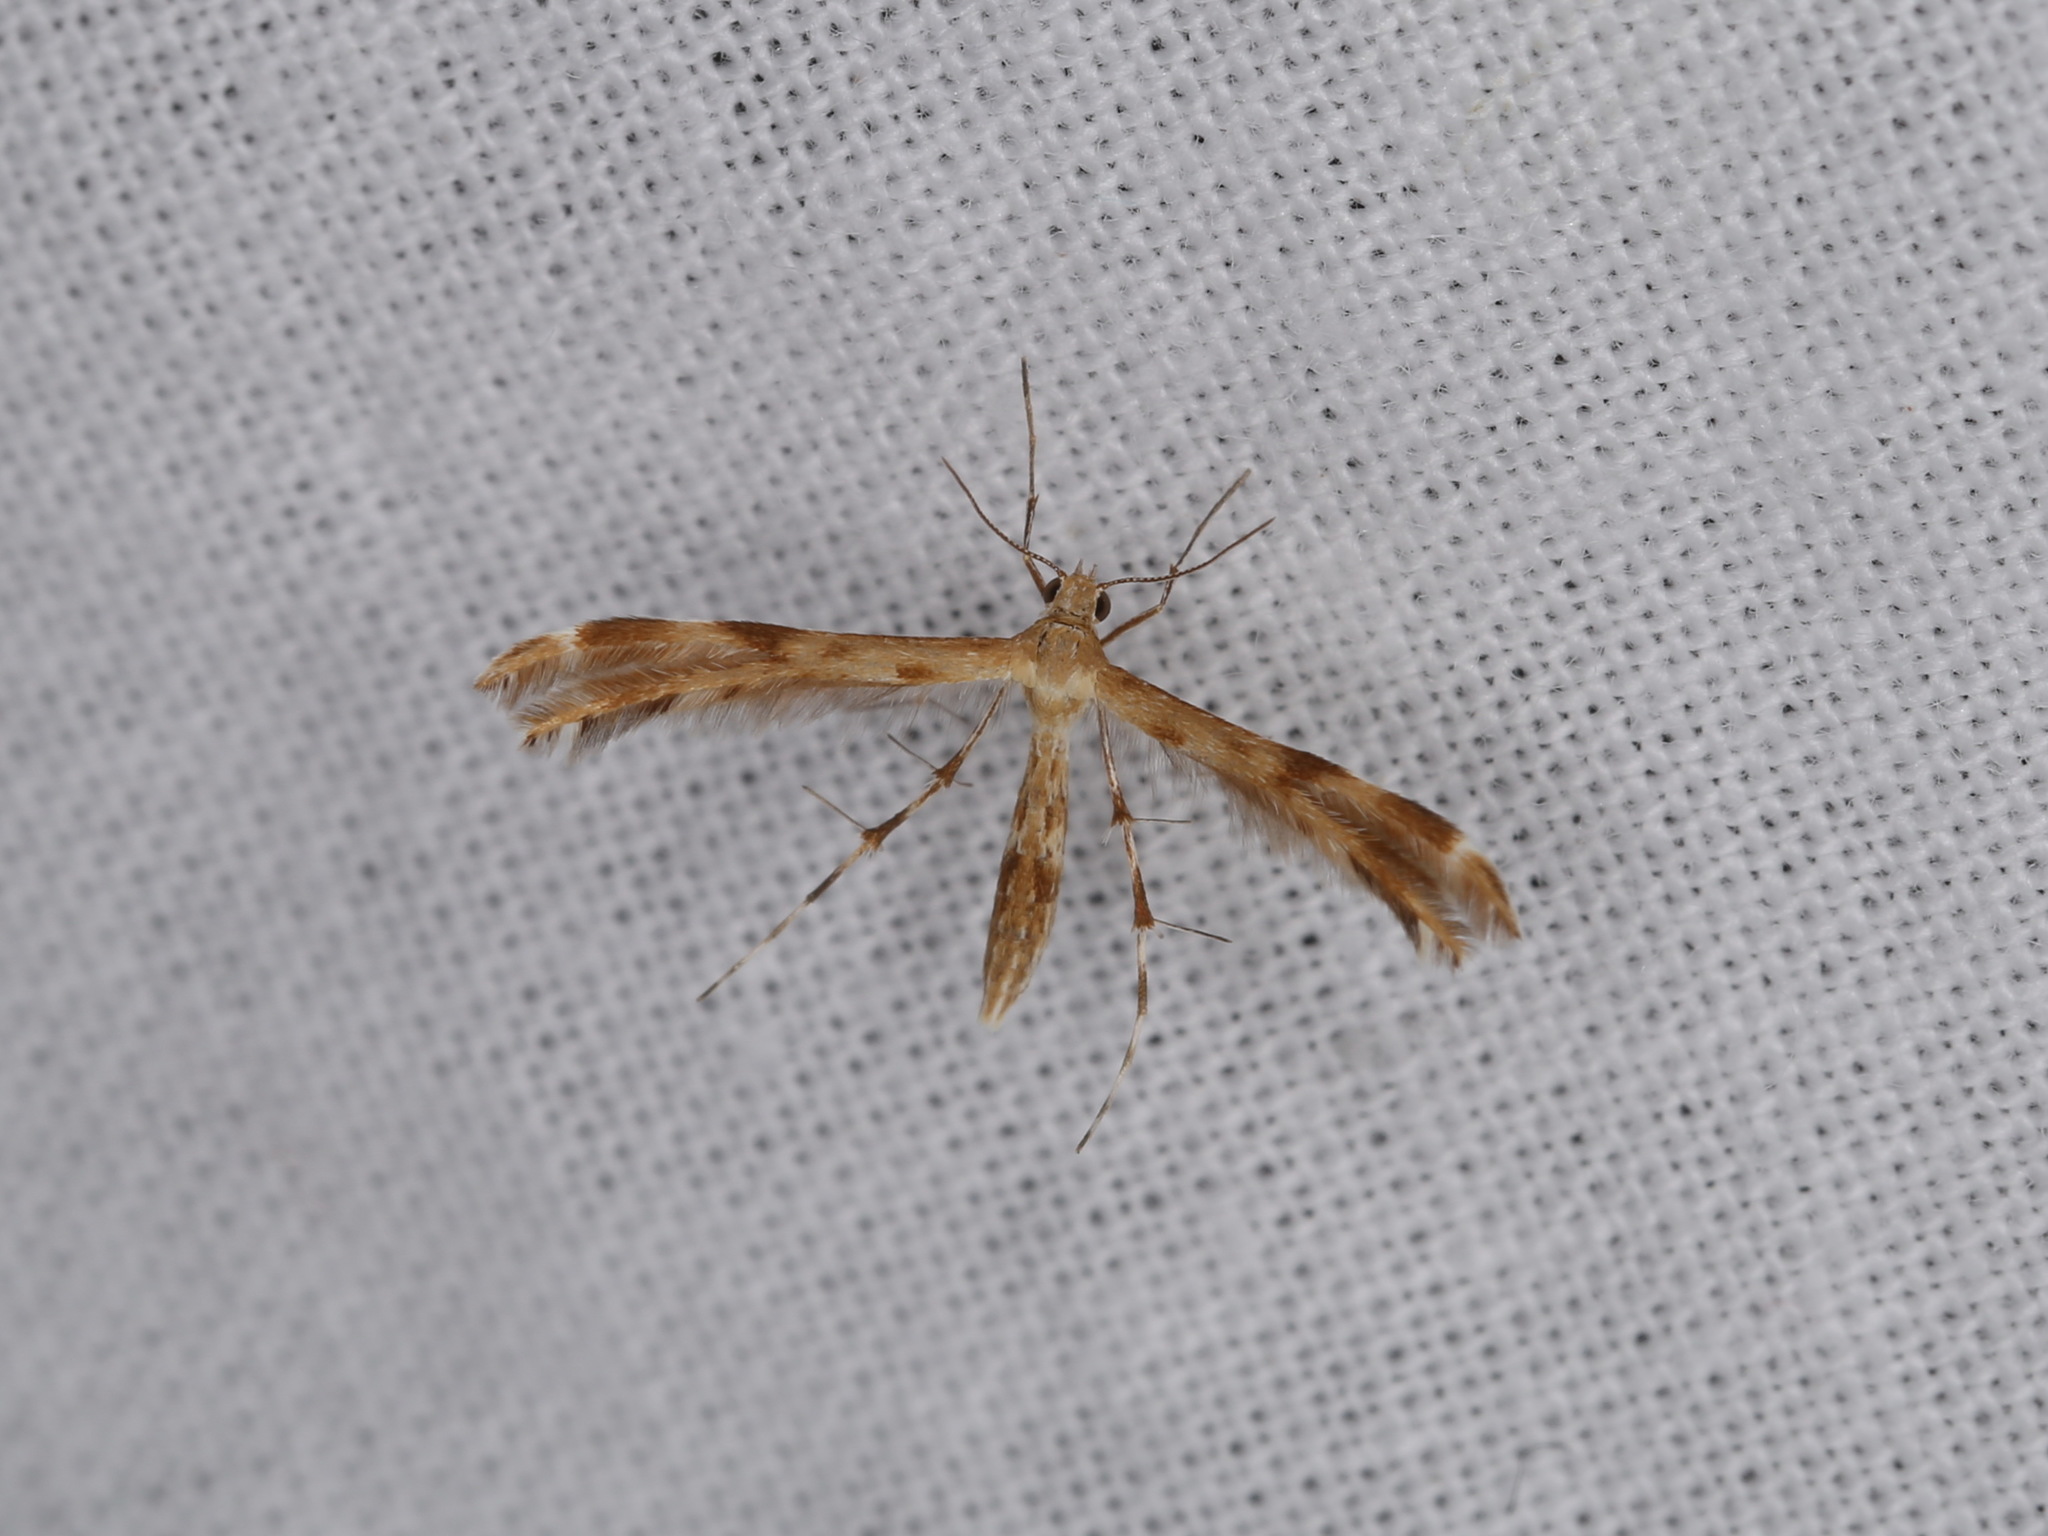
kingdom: Animalia
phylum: Arthropoda
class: Insecta
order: Lepidoptera
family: Pterophoridae
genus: Trichoptilus
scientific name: Trichoptilus ceramodes
